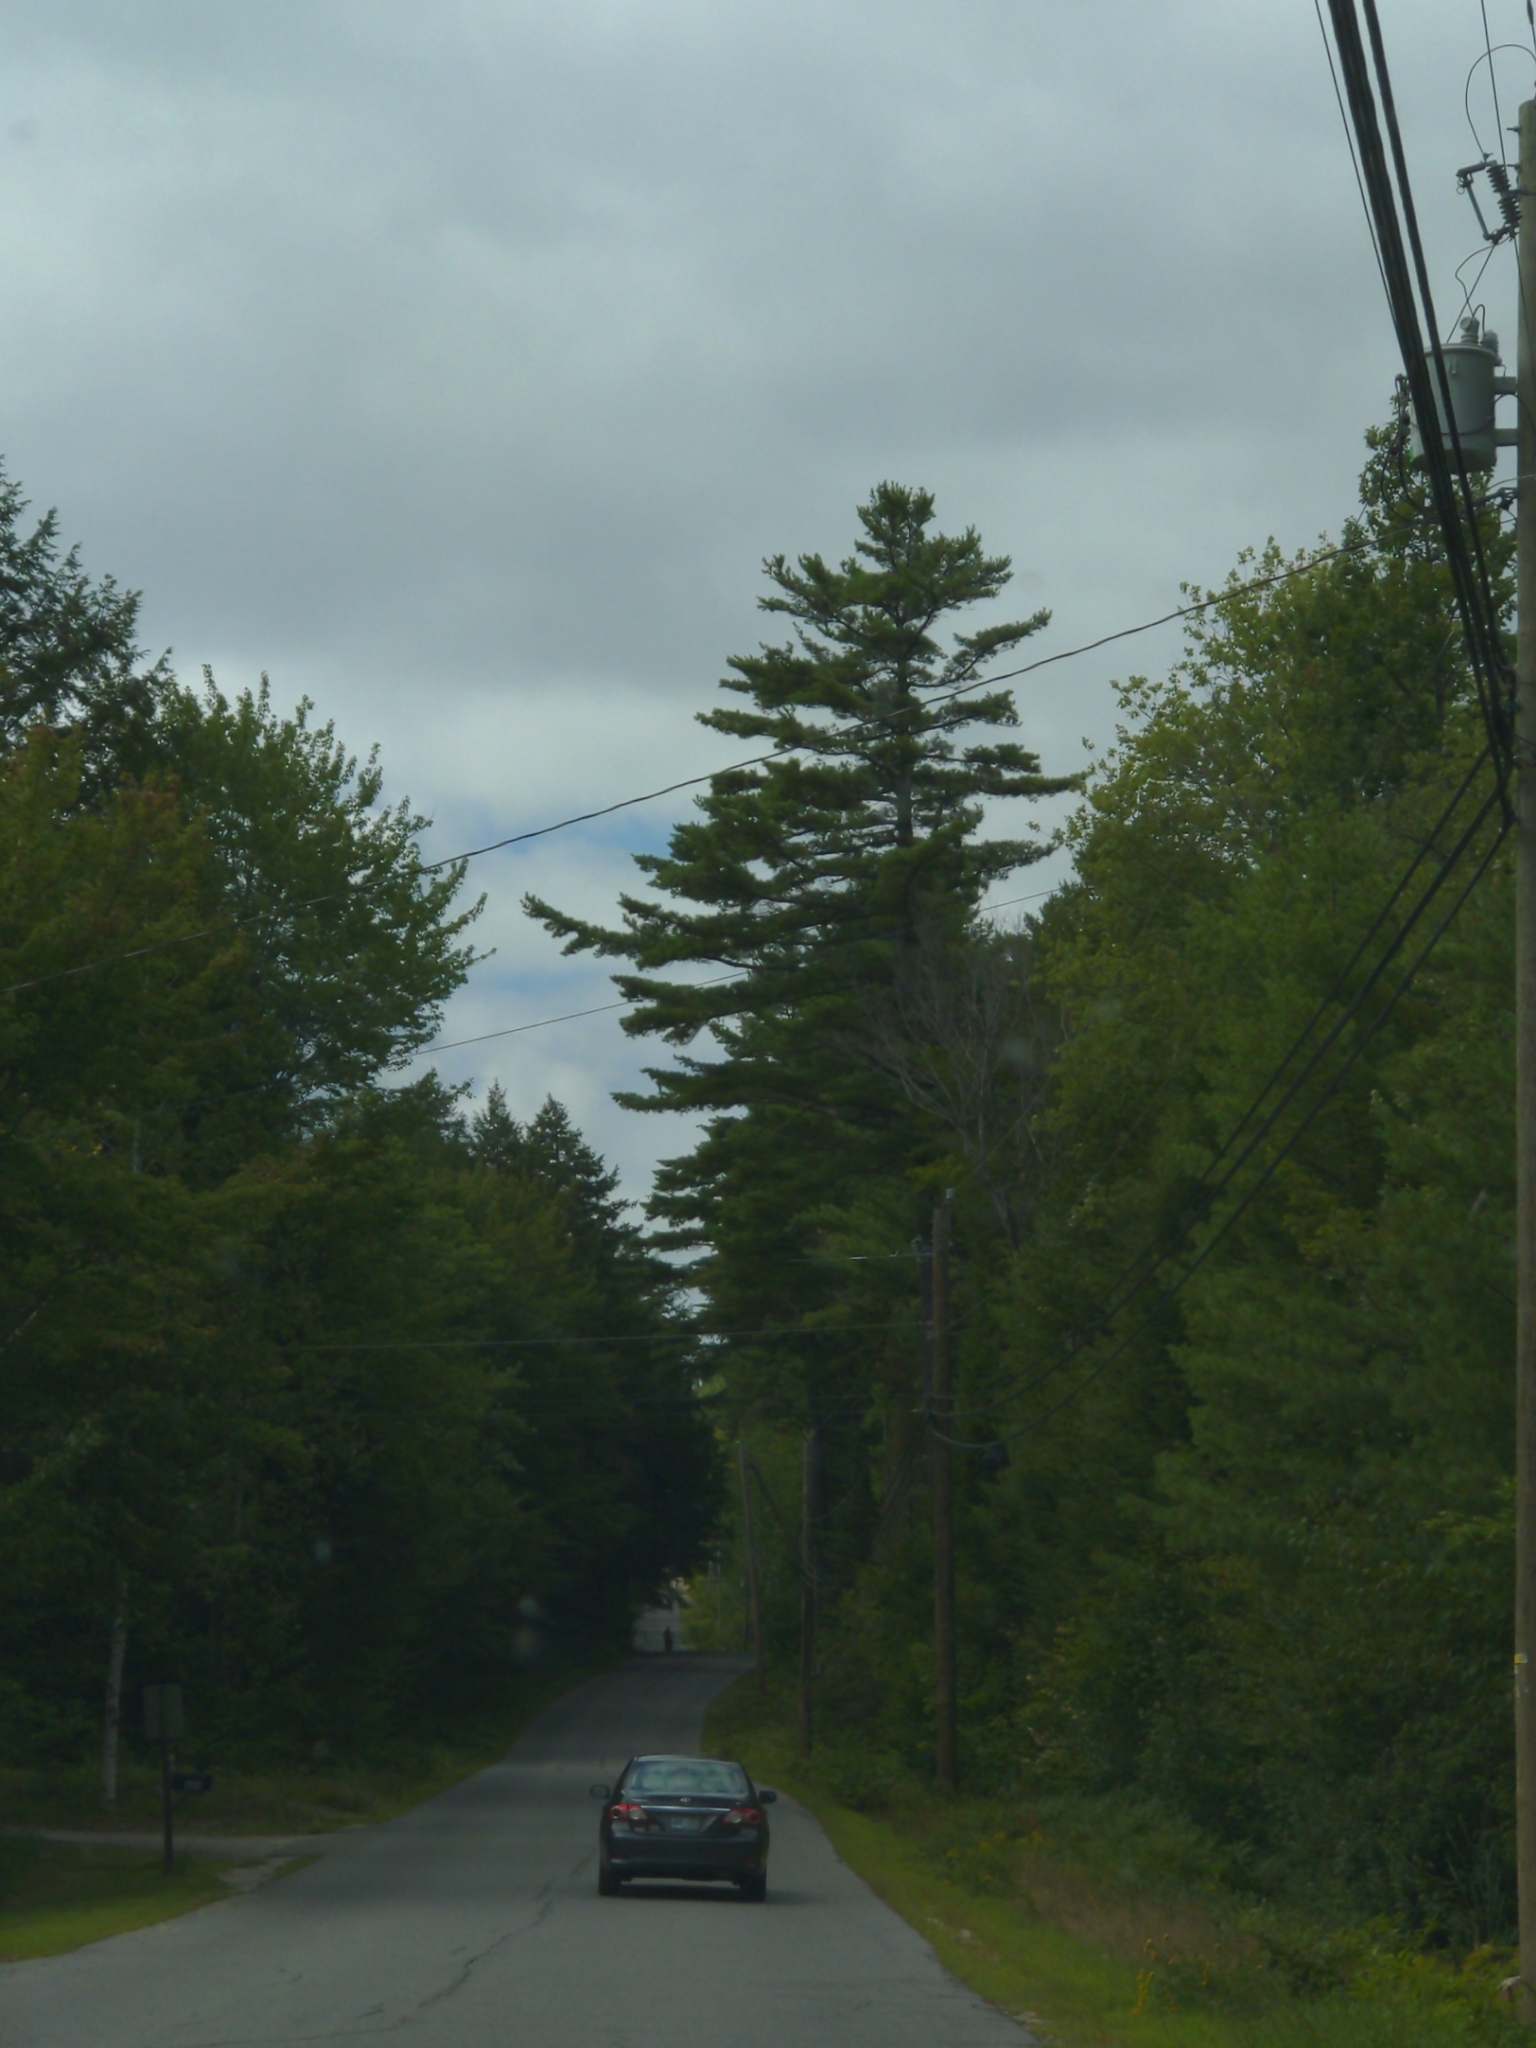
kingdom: Plantae
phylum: Tracheophyta
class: Pinopsida
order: Pinales
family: Pinaceae
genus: Pinus
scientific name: Pinus strobus
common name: Weymouth pine
